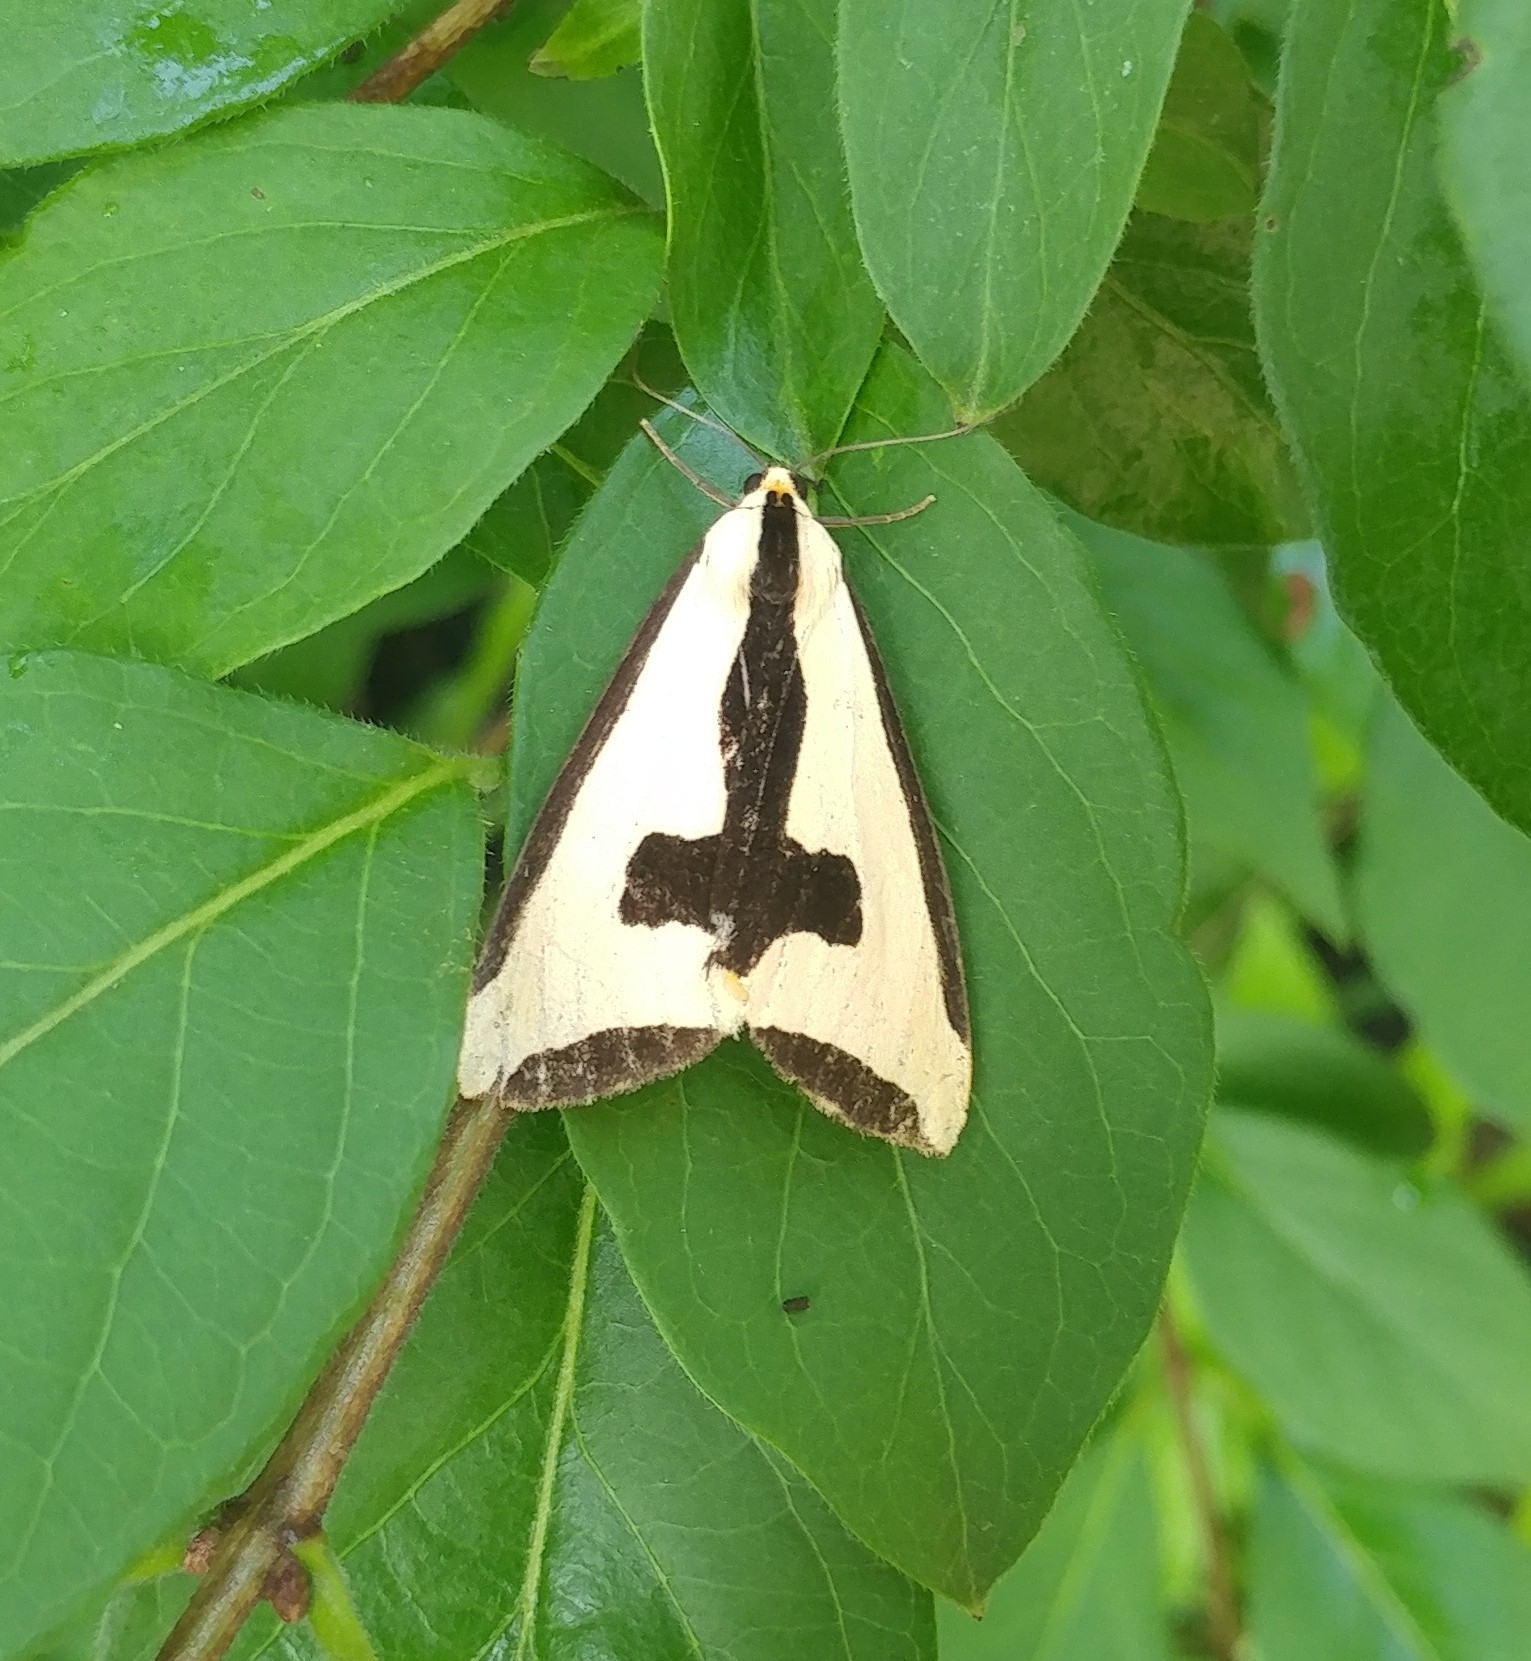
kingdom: Animalia
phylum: Arthropoda
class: Insecta
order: Lepidoptera
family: Erebidae
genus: Haploa
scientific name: Haploa clymene
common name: Clymene moth
